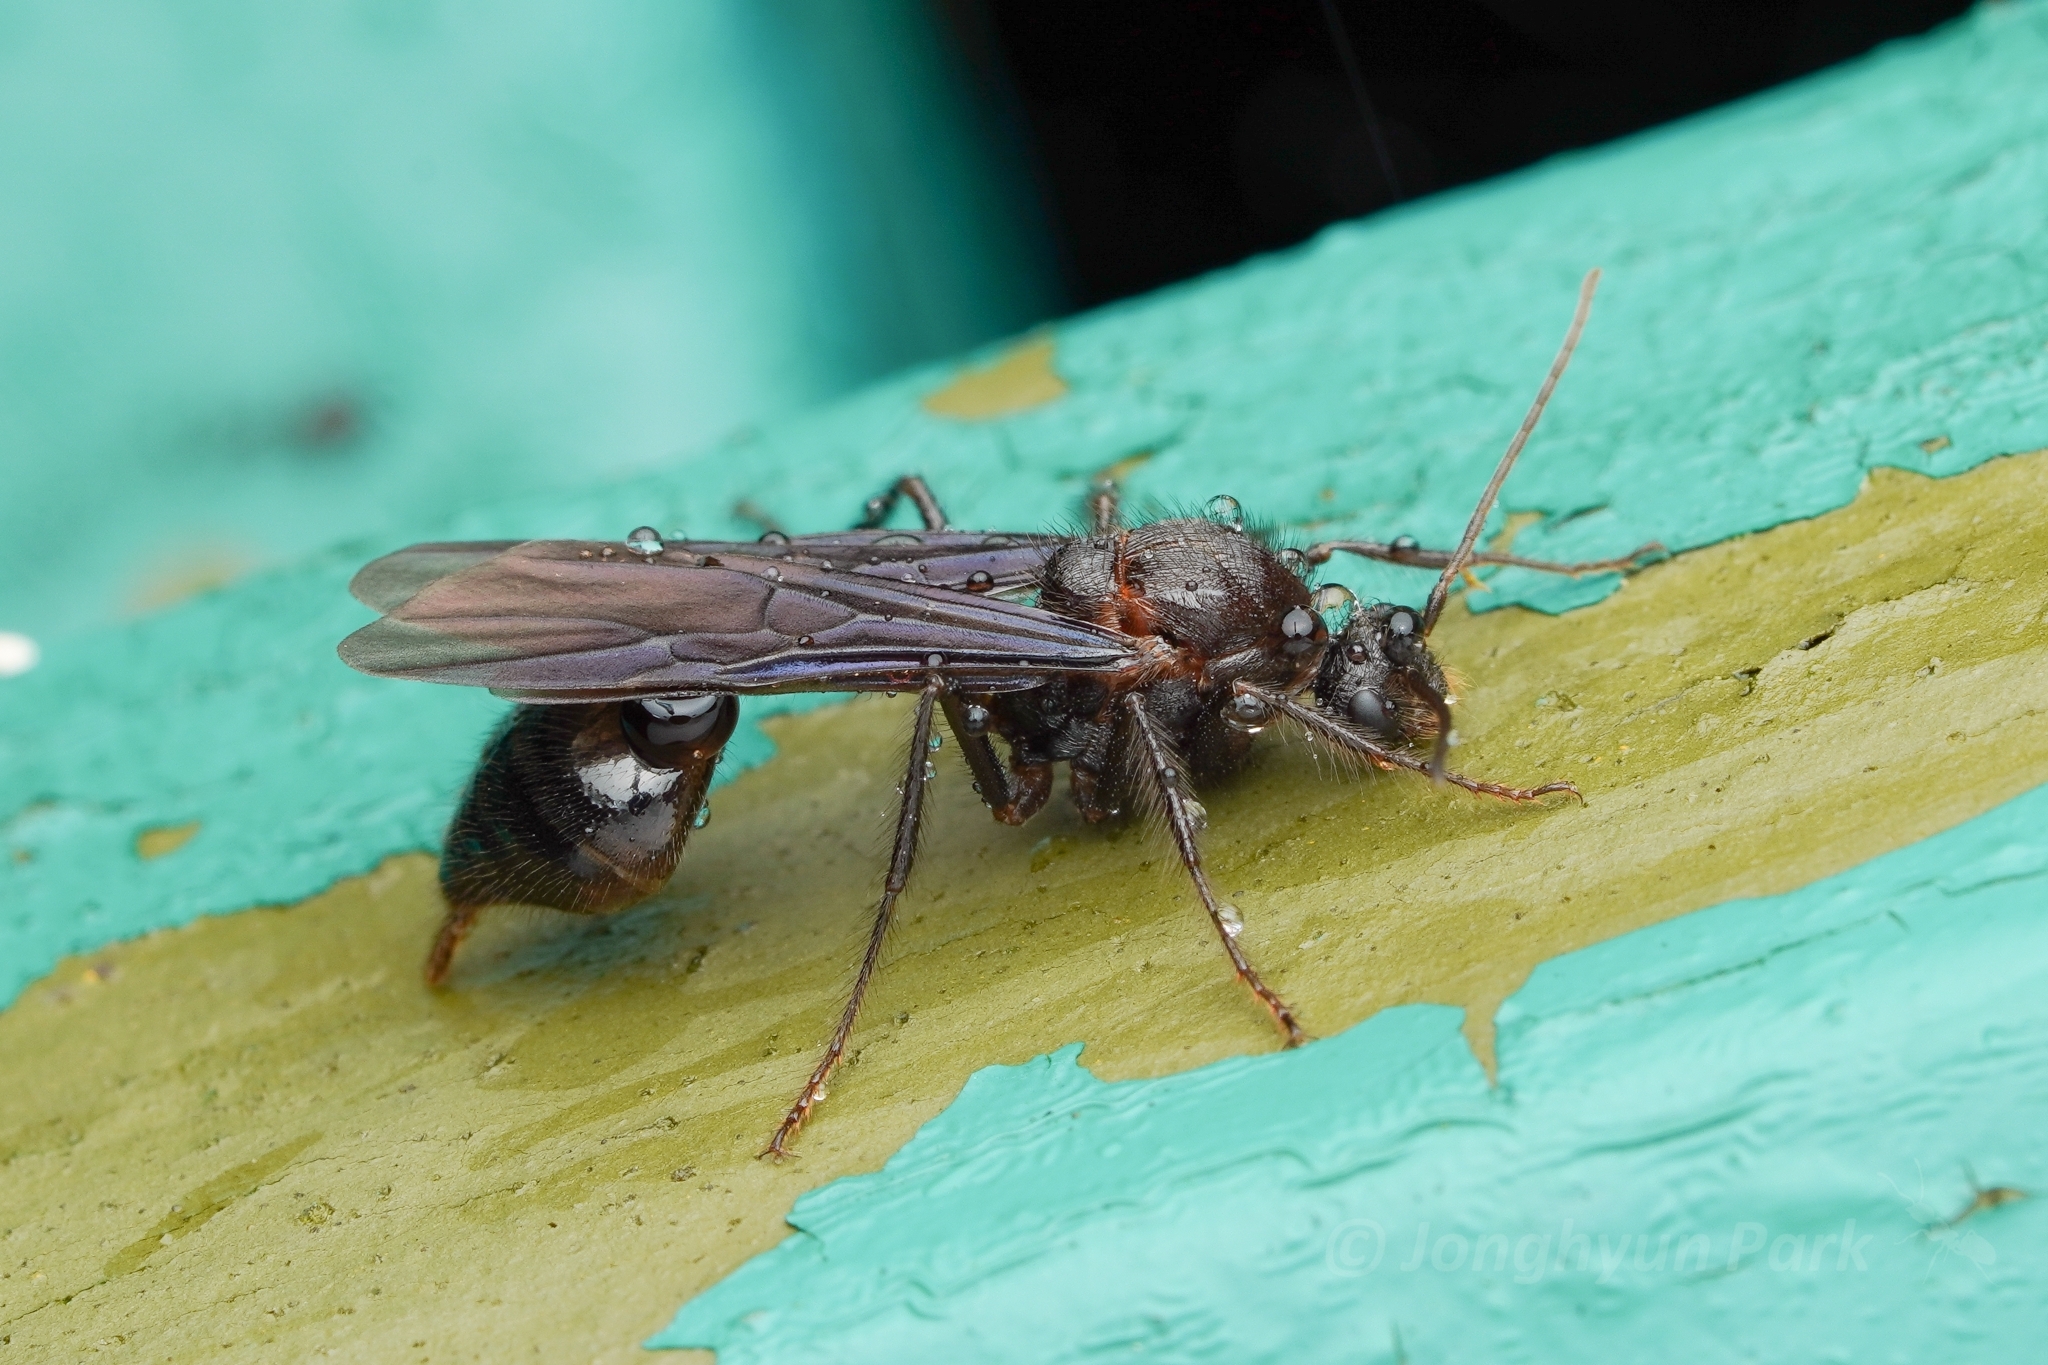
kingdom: Animalia
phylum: Arthropoda
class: Insecta
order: Hymenoptera
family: Formicidae
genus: Myrmicaria
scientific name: Myrmicaria
